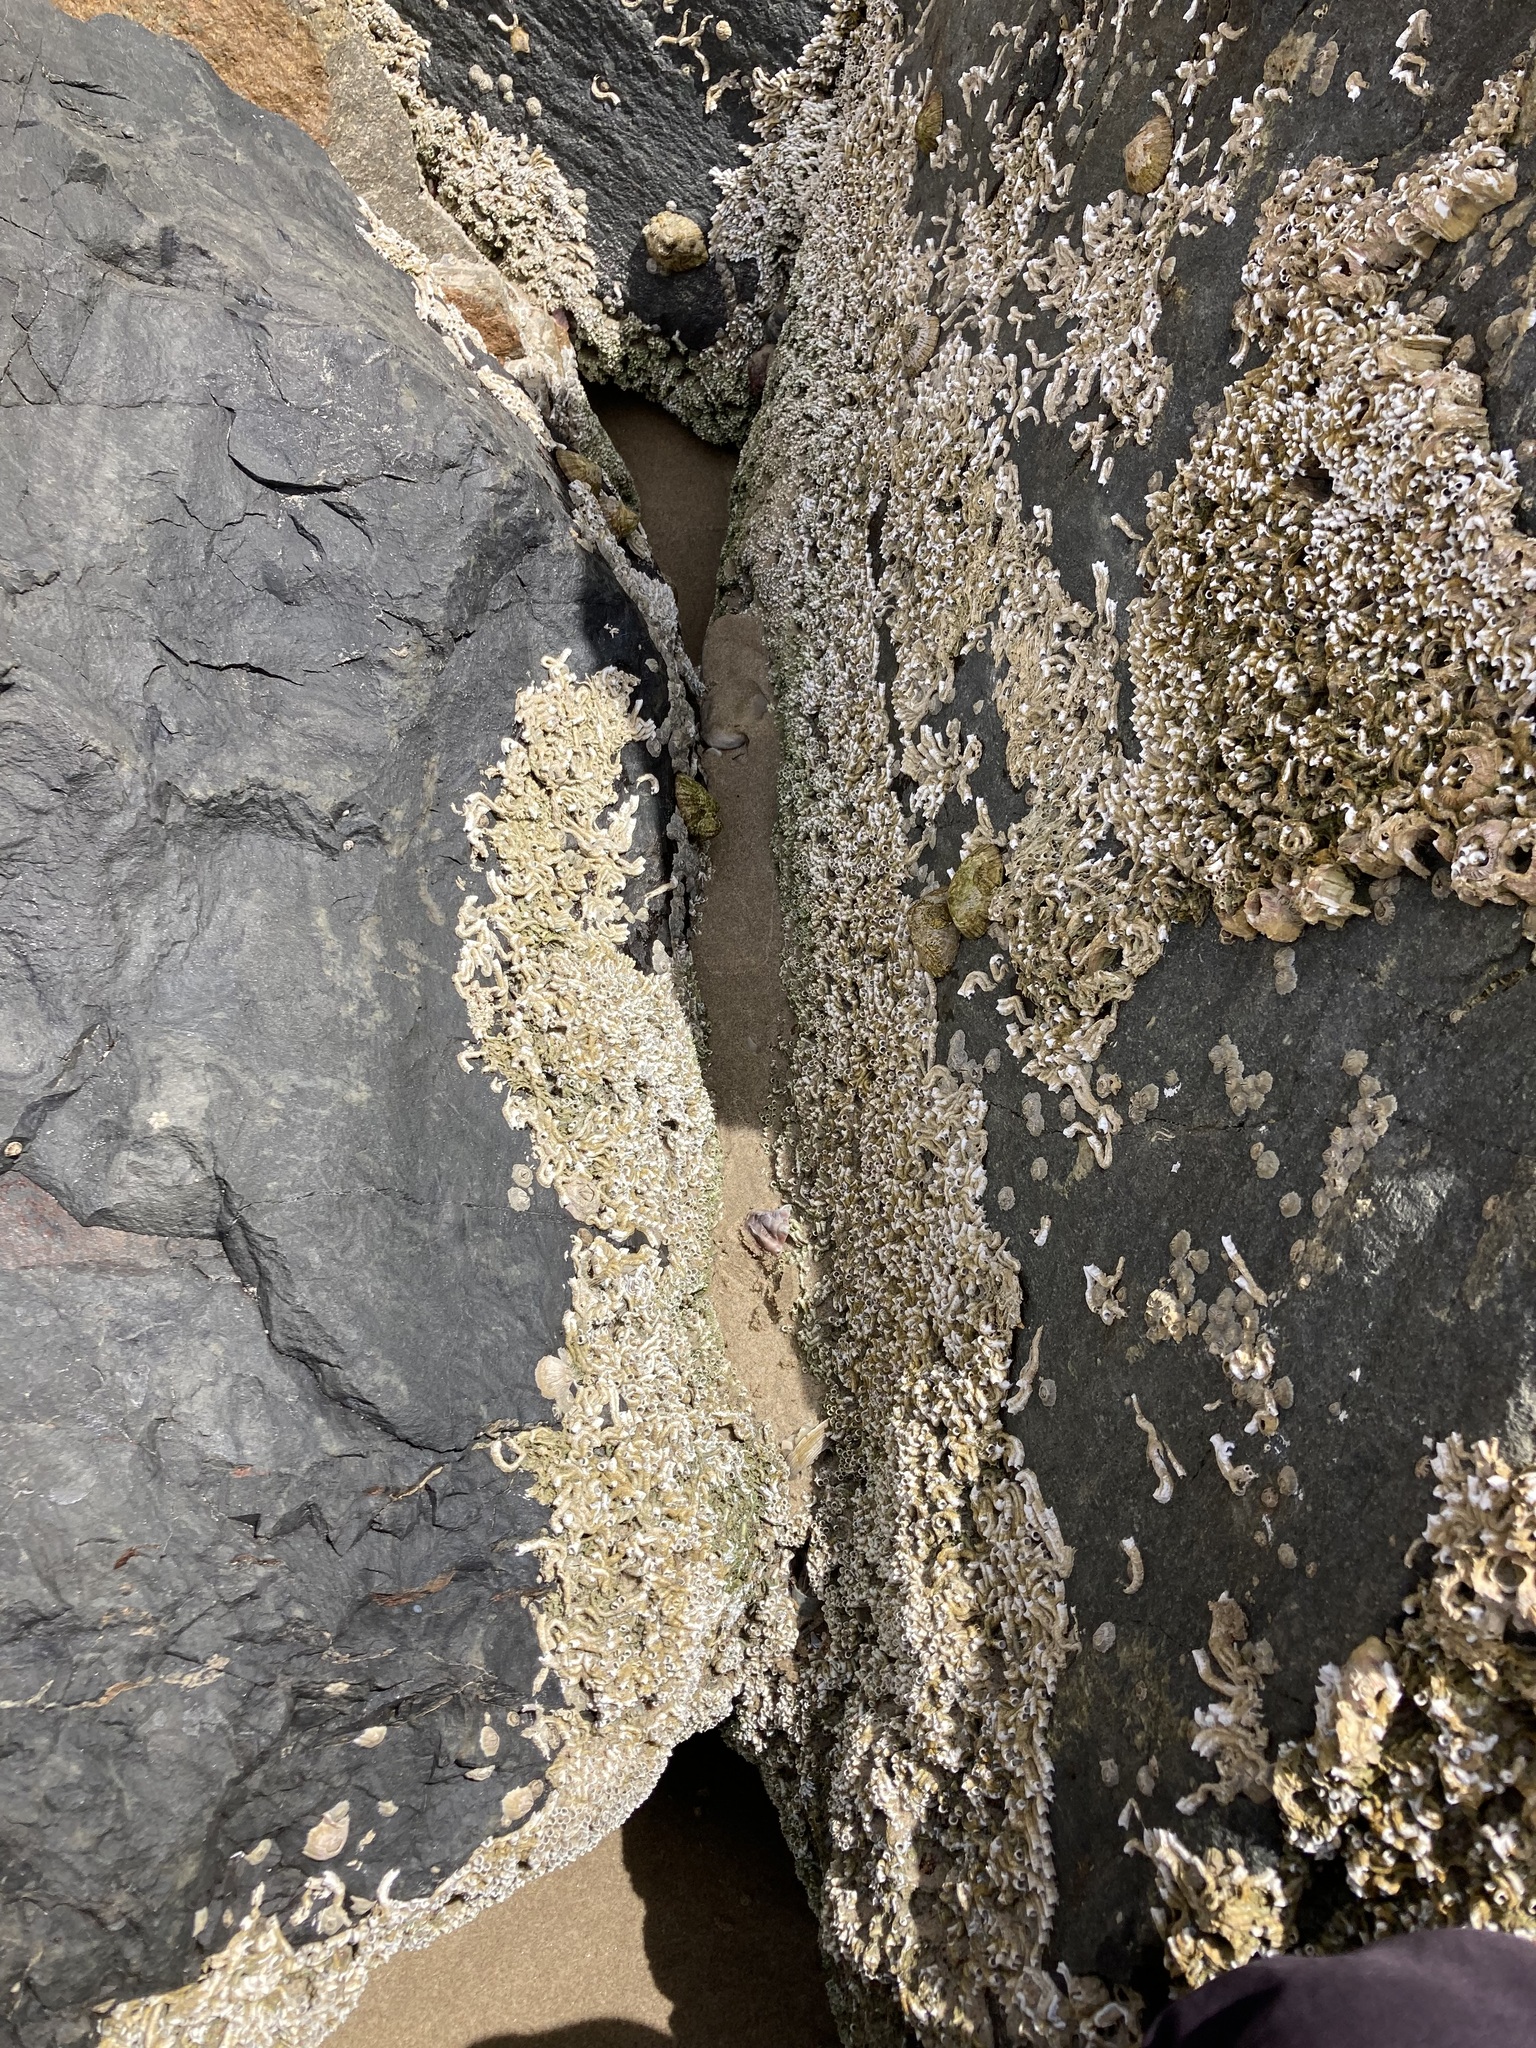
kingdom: Animalia
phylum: Annelida
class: Polychaeta
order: Sabellida
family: Serpulidae
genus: Galeolaria
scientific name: Galeolaria gemineoa
